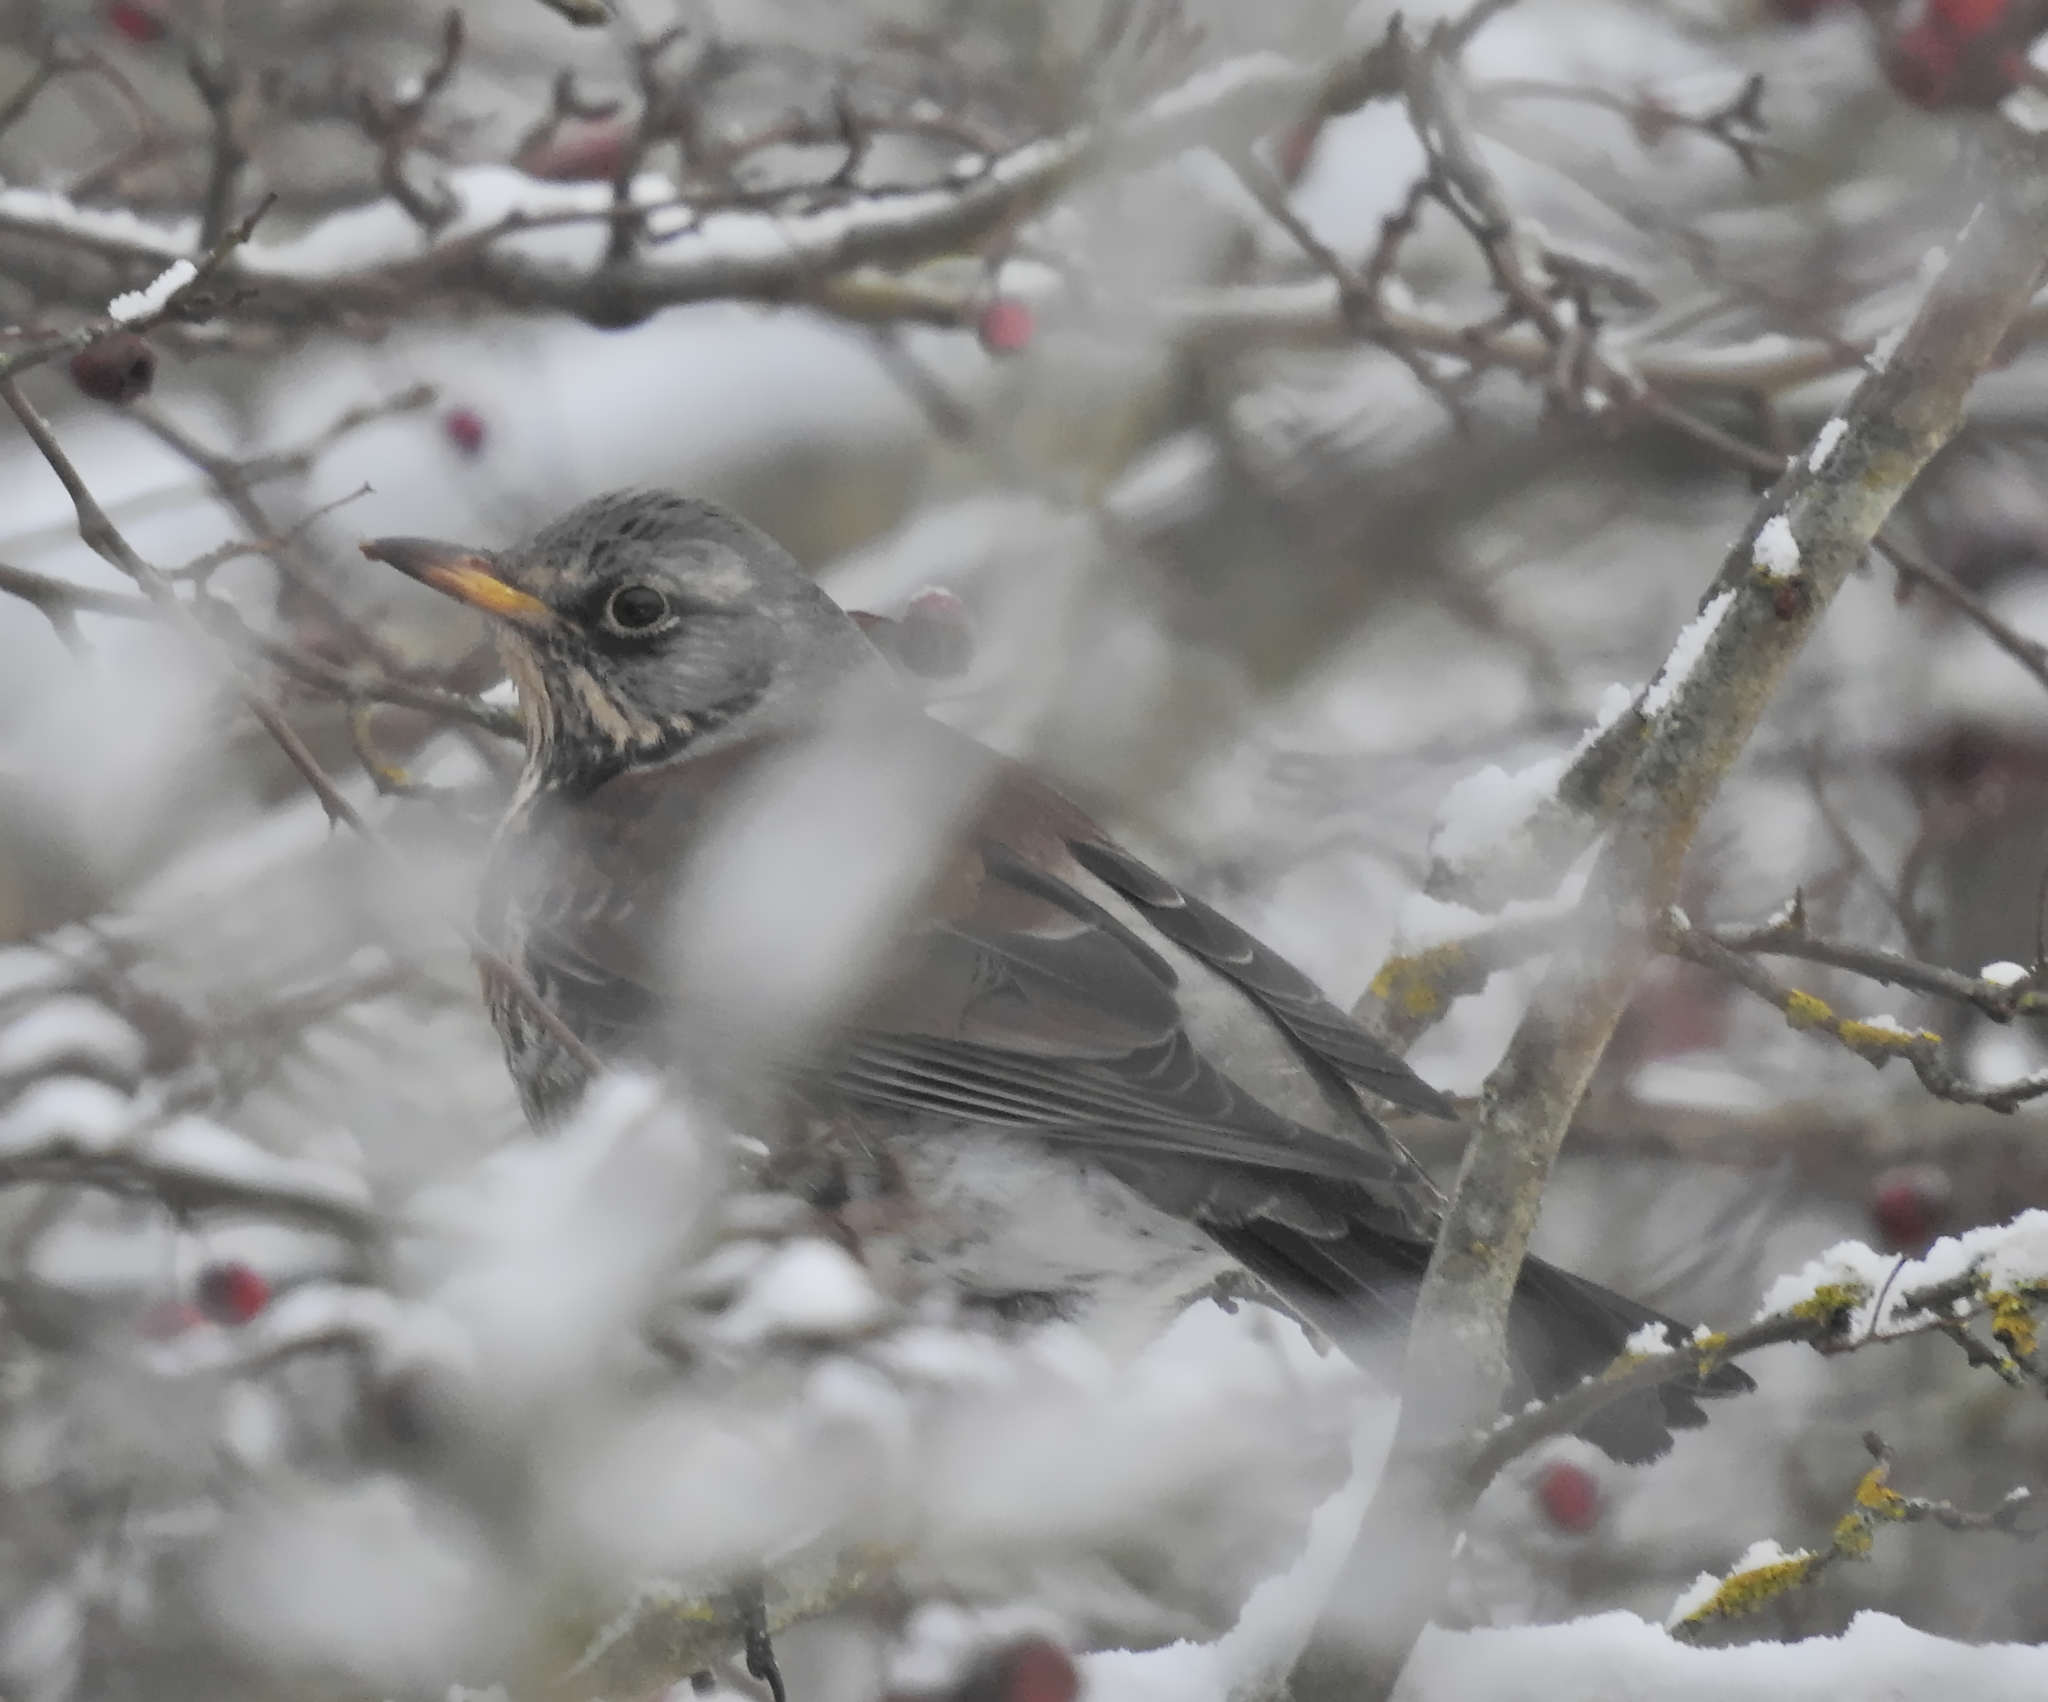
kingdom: Animalia
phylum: Chordata
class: Aves
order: Passeriformes
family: Turdidae
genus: Turdus
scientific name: Turdus pilaris
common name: Fieldfare
